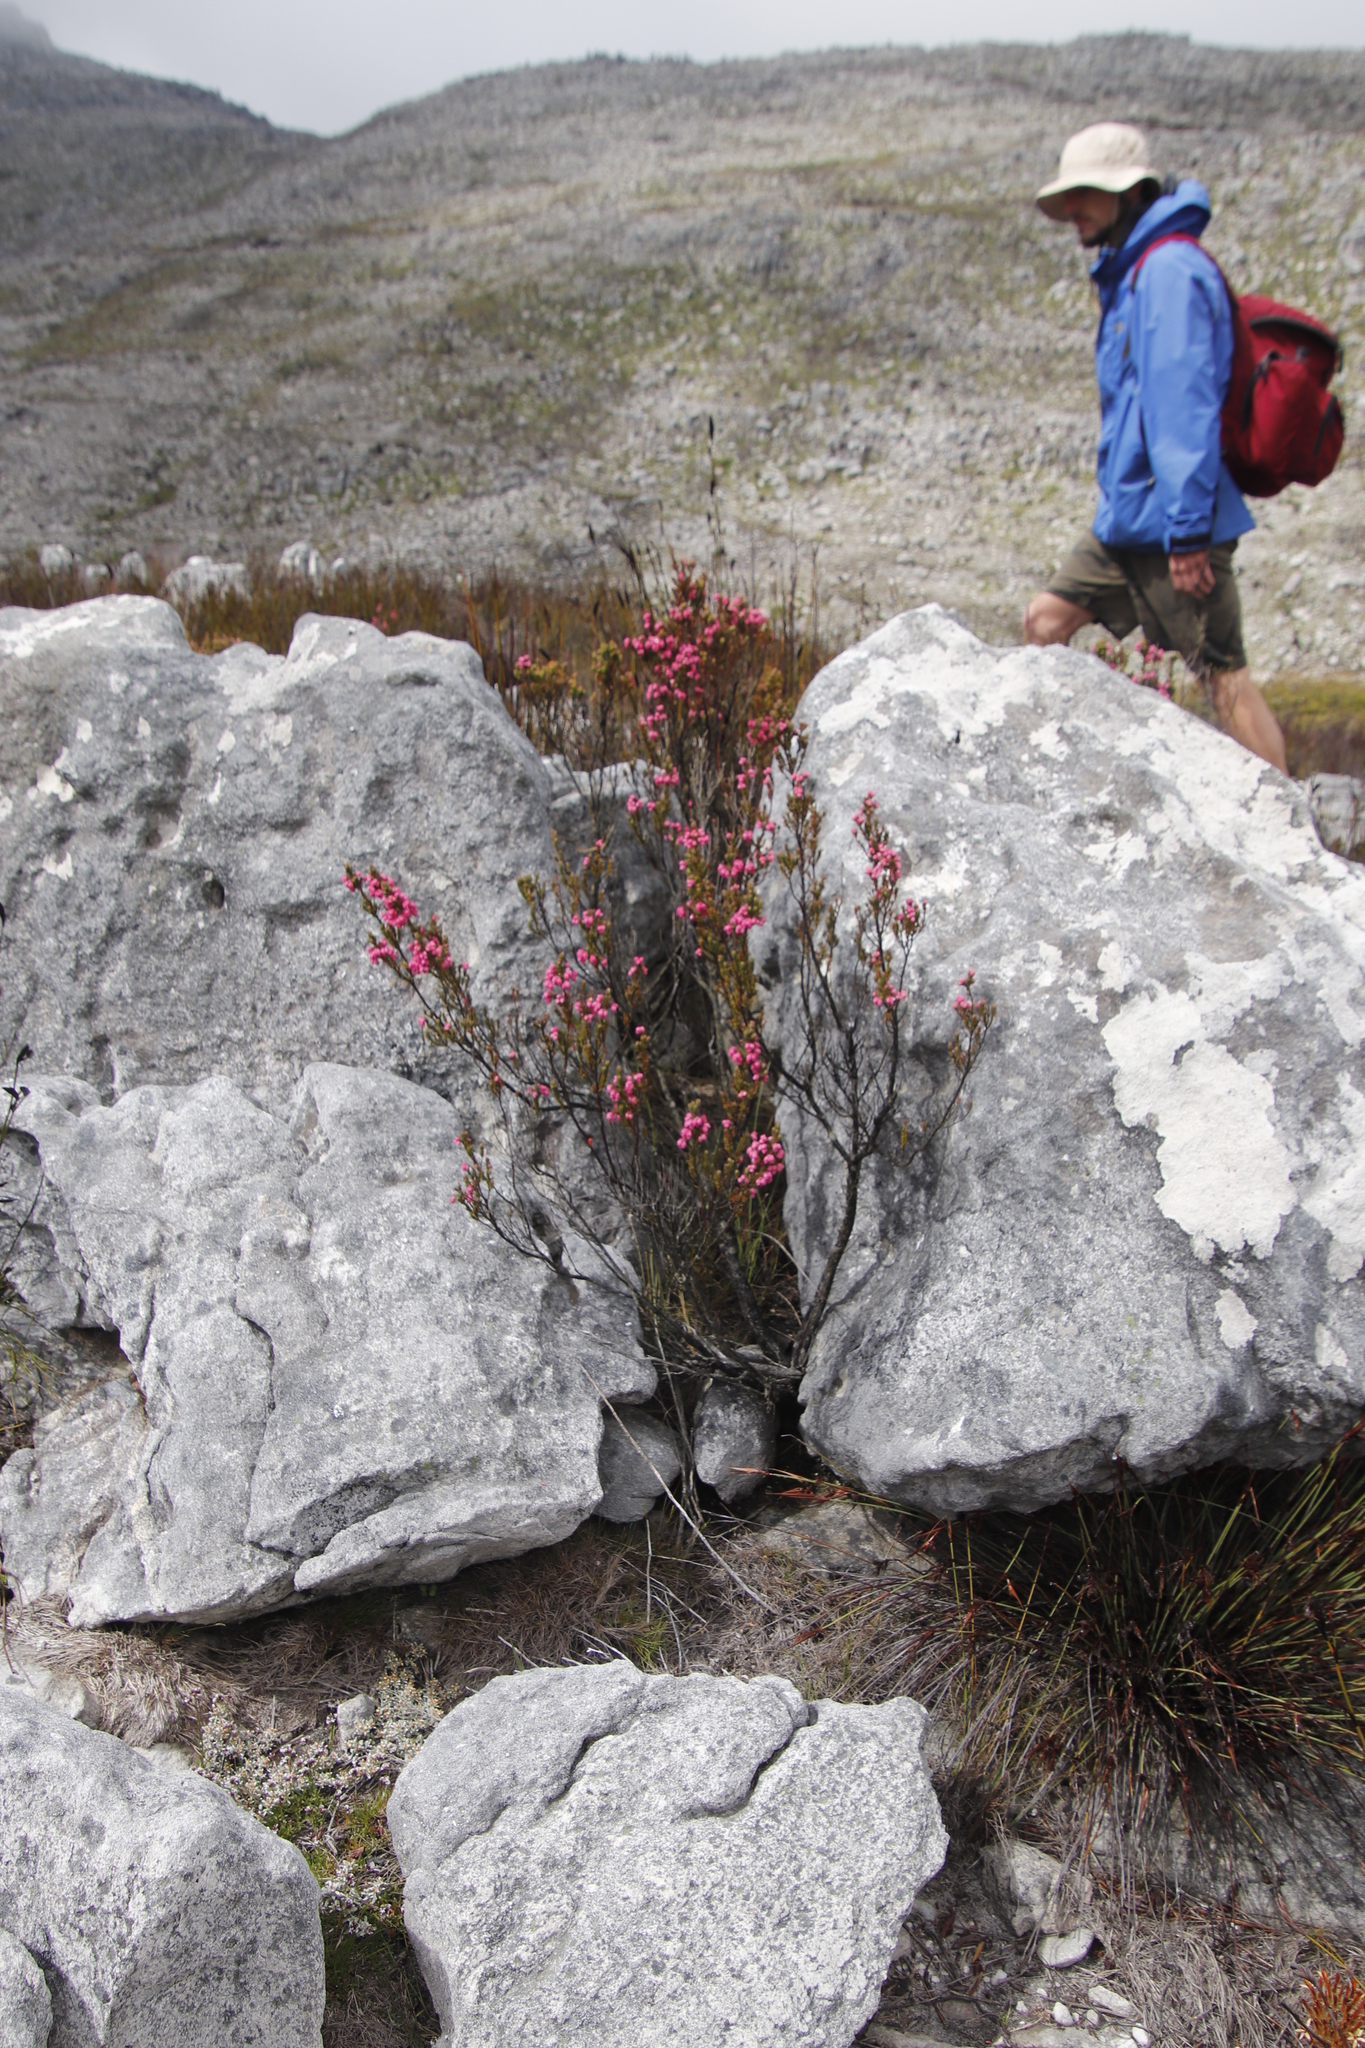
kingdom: Plantae
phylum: Tracheophyta
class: Magnoliopsida
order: Ericales
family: Ericaceae
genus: Erica
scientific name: Erica tegulifolia
